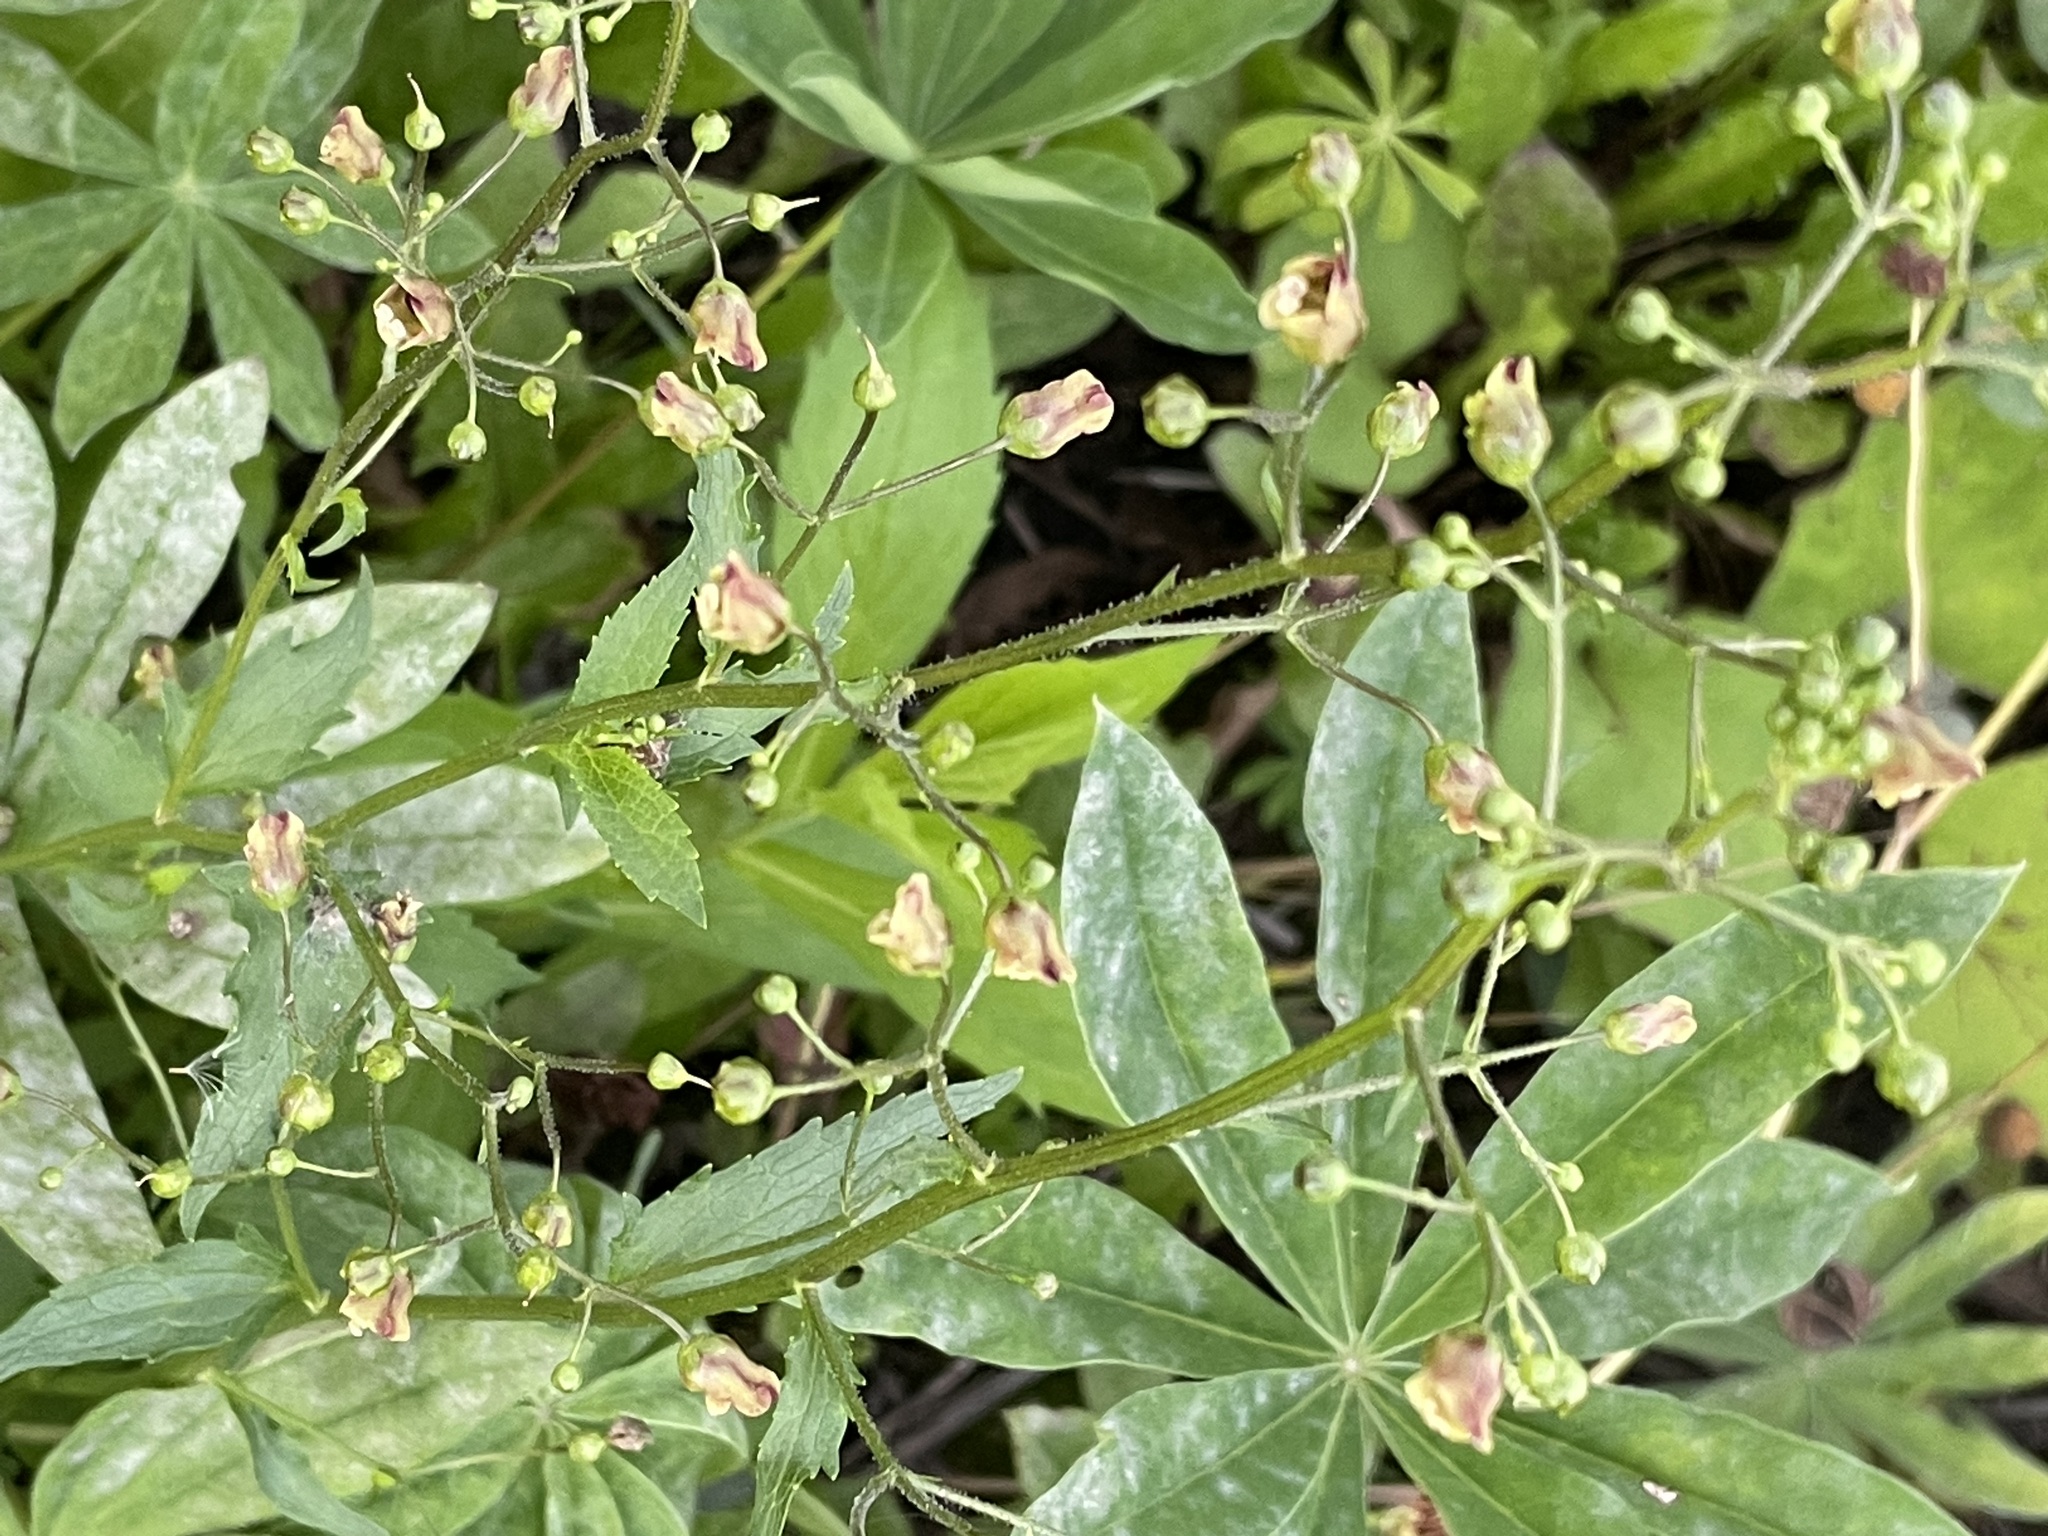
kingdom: Plantae
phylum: Tracheophyta
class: Magnoliopsida
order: Lamiales
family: Scrophulariaceae
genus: Scrophularia
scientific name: Scrophularia nodosa
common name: Common figwort
